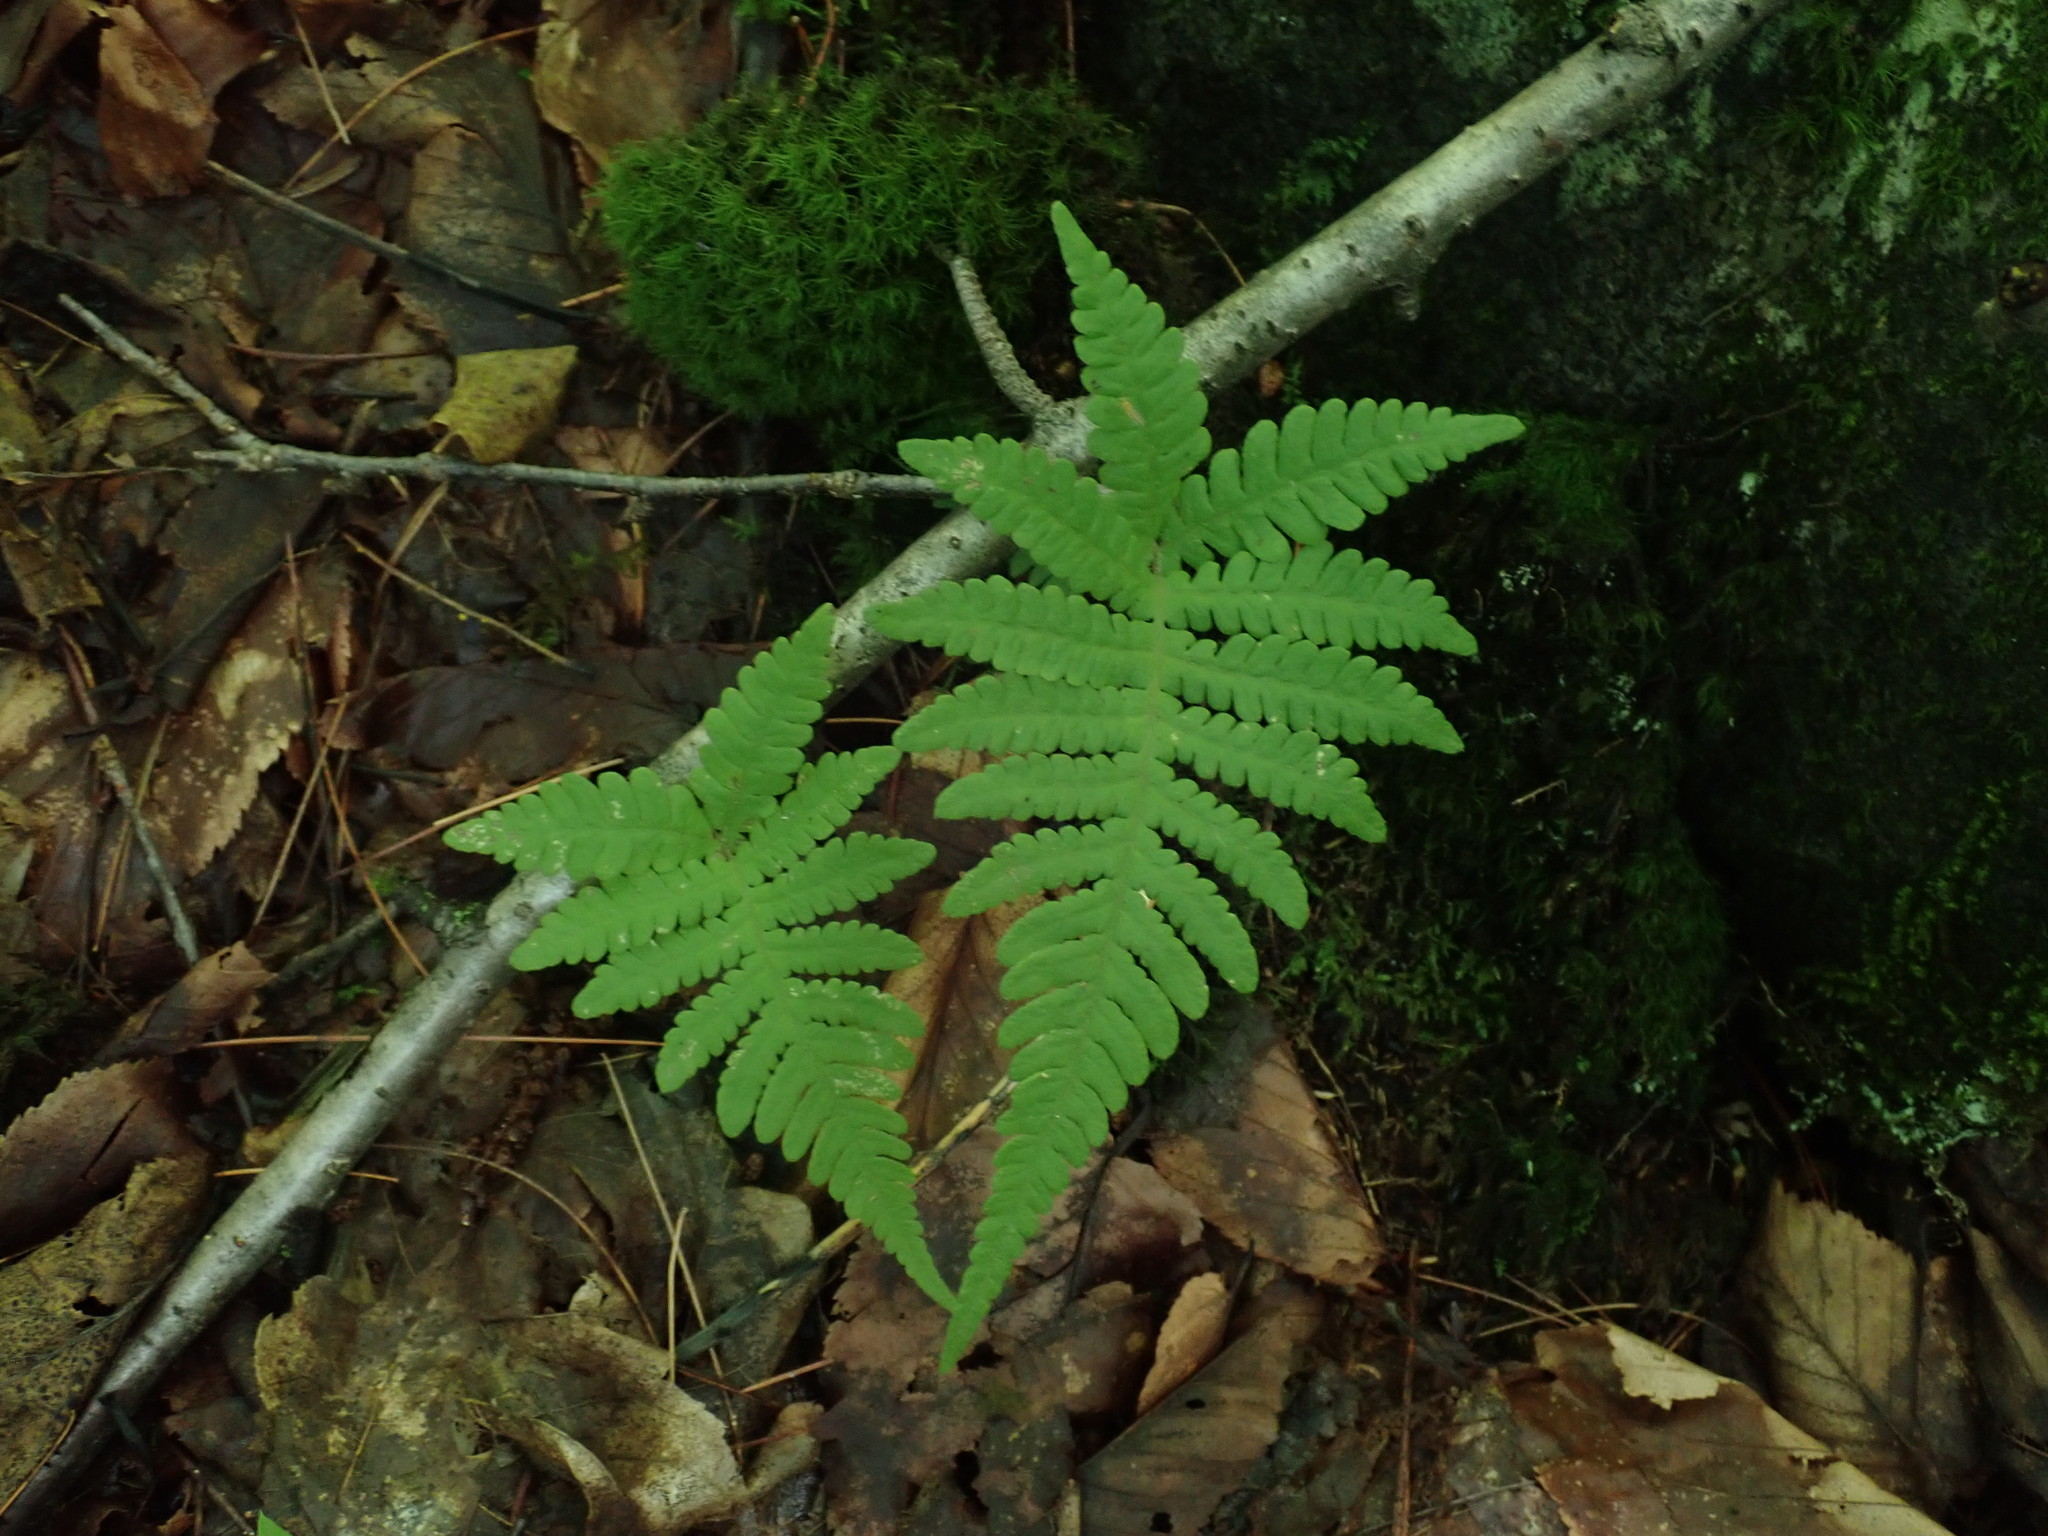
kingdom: Plantae
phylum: Tracheophyta
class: Polypodiopsida
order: Polypodiales
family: Thelypteridaceae
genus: Phegopteris
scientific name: Phegopteris connectilis
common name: Beech fern
